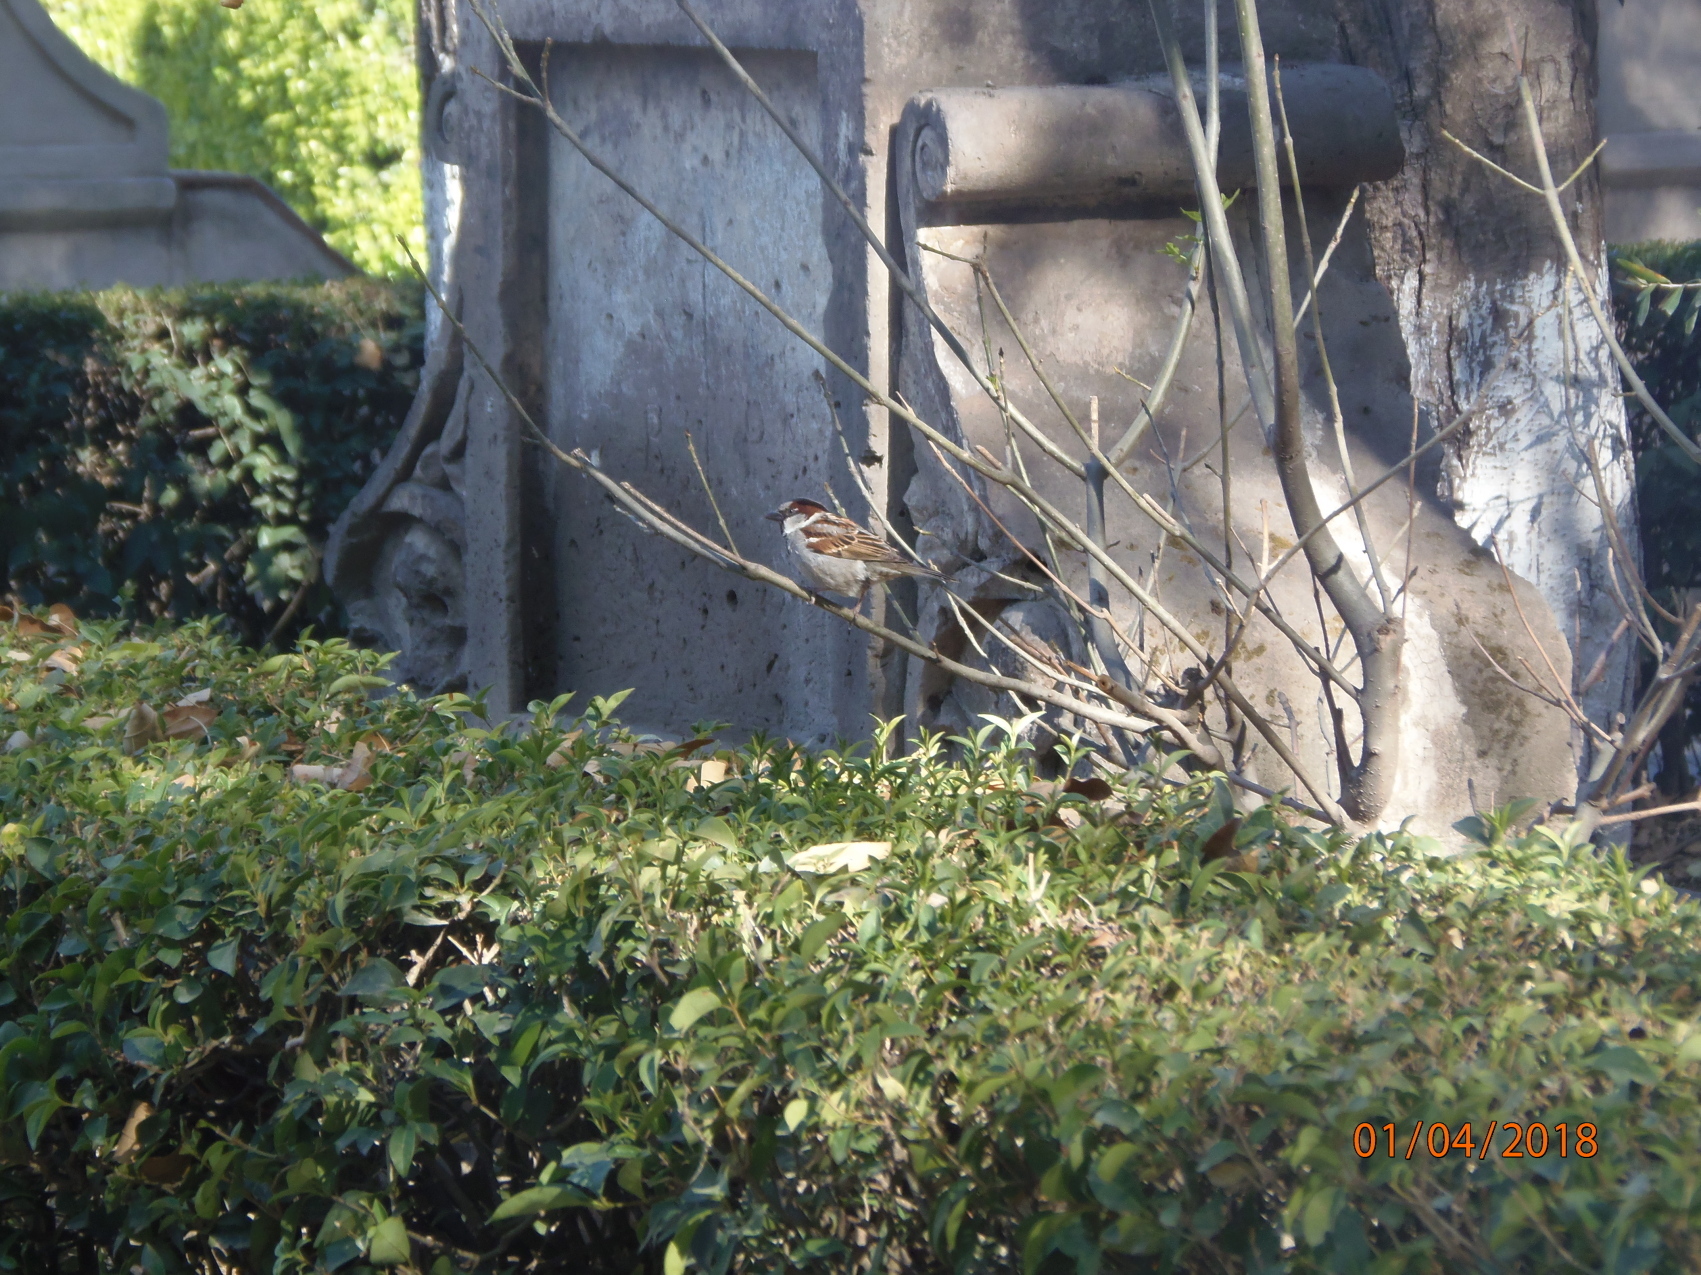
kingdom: Animalia
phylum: Chordata
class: Aves
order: Passeriformes
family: Passeridae
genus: Passer
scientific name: Passer domesticus
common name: House sparrow
